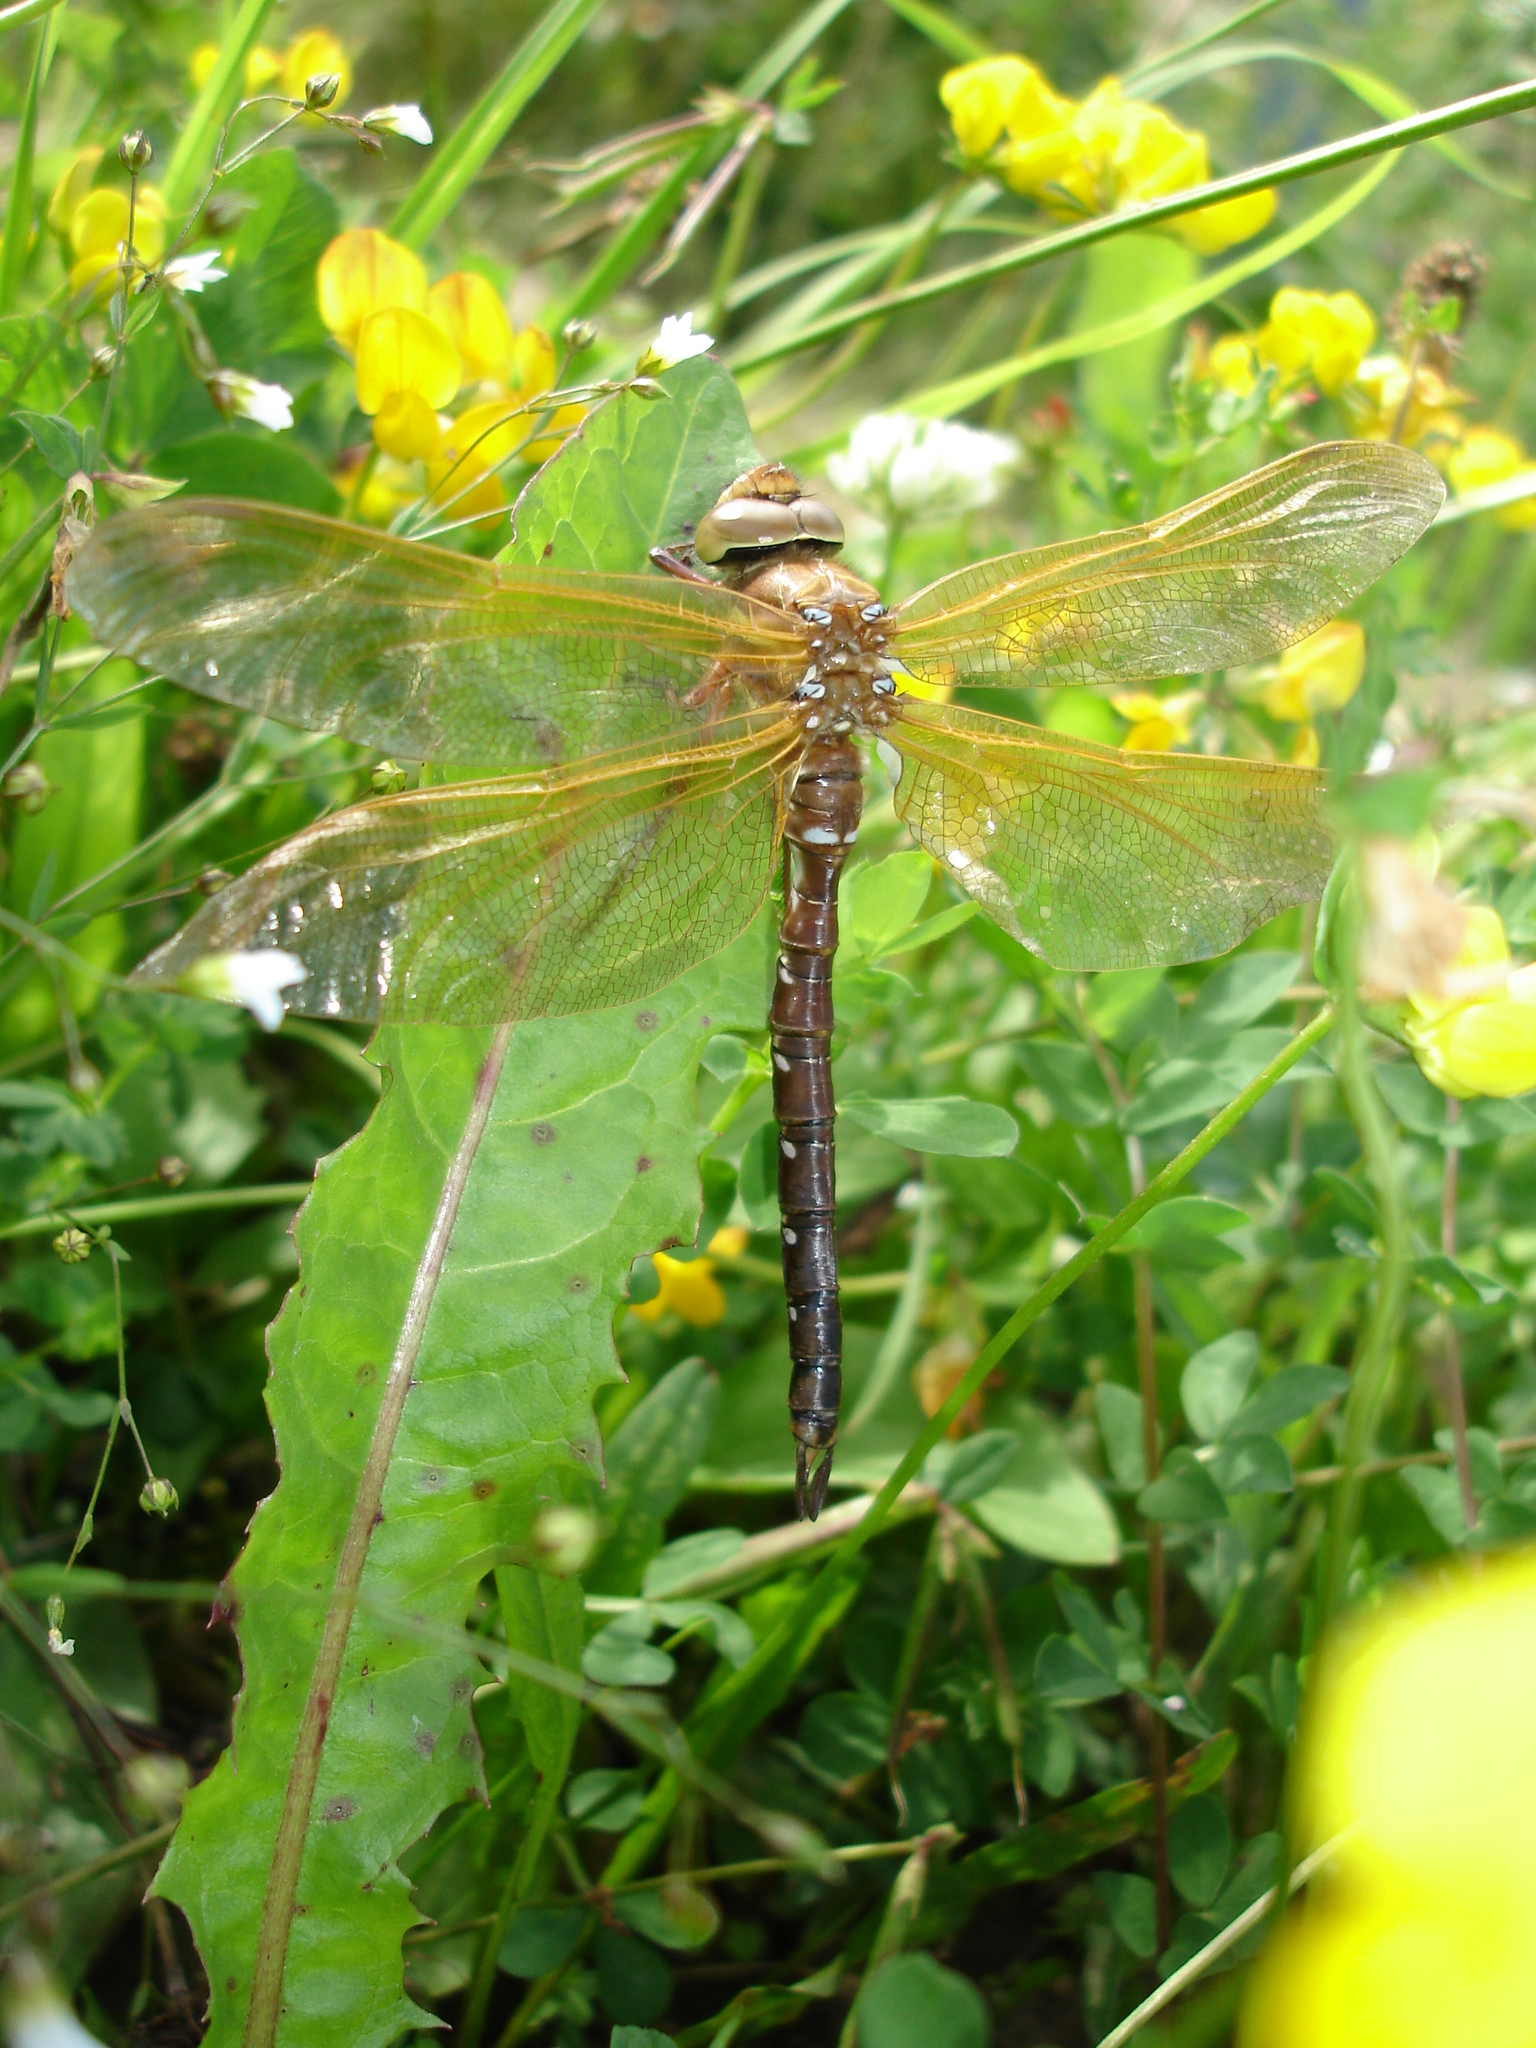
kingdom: Animalia
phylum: Arthropoda
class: Insecta
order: Odonata
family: Aeshnidae
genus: Aeshna
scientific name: Aeshna grandis
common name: Brown hawker
